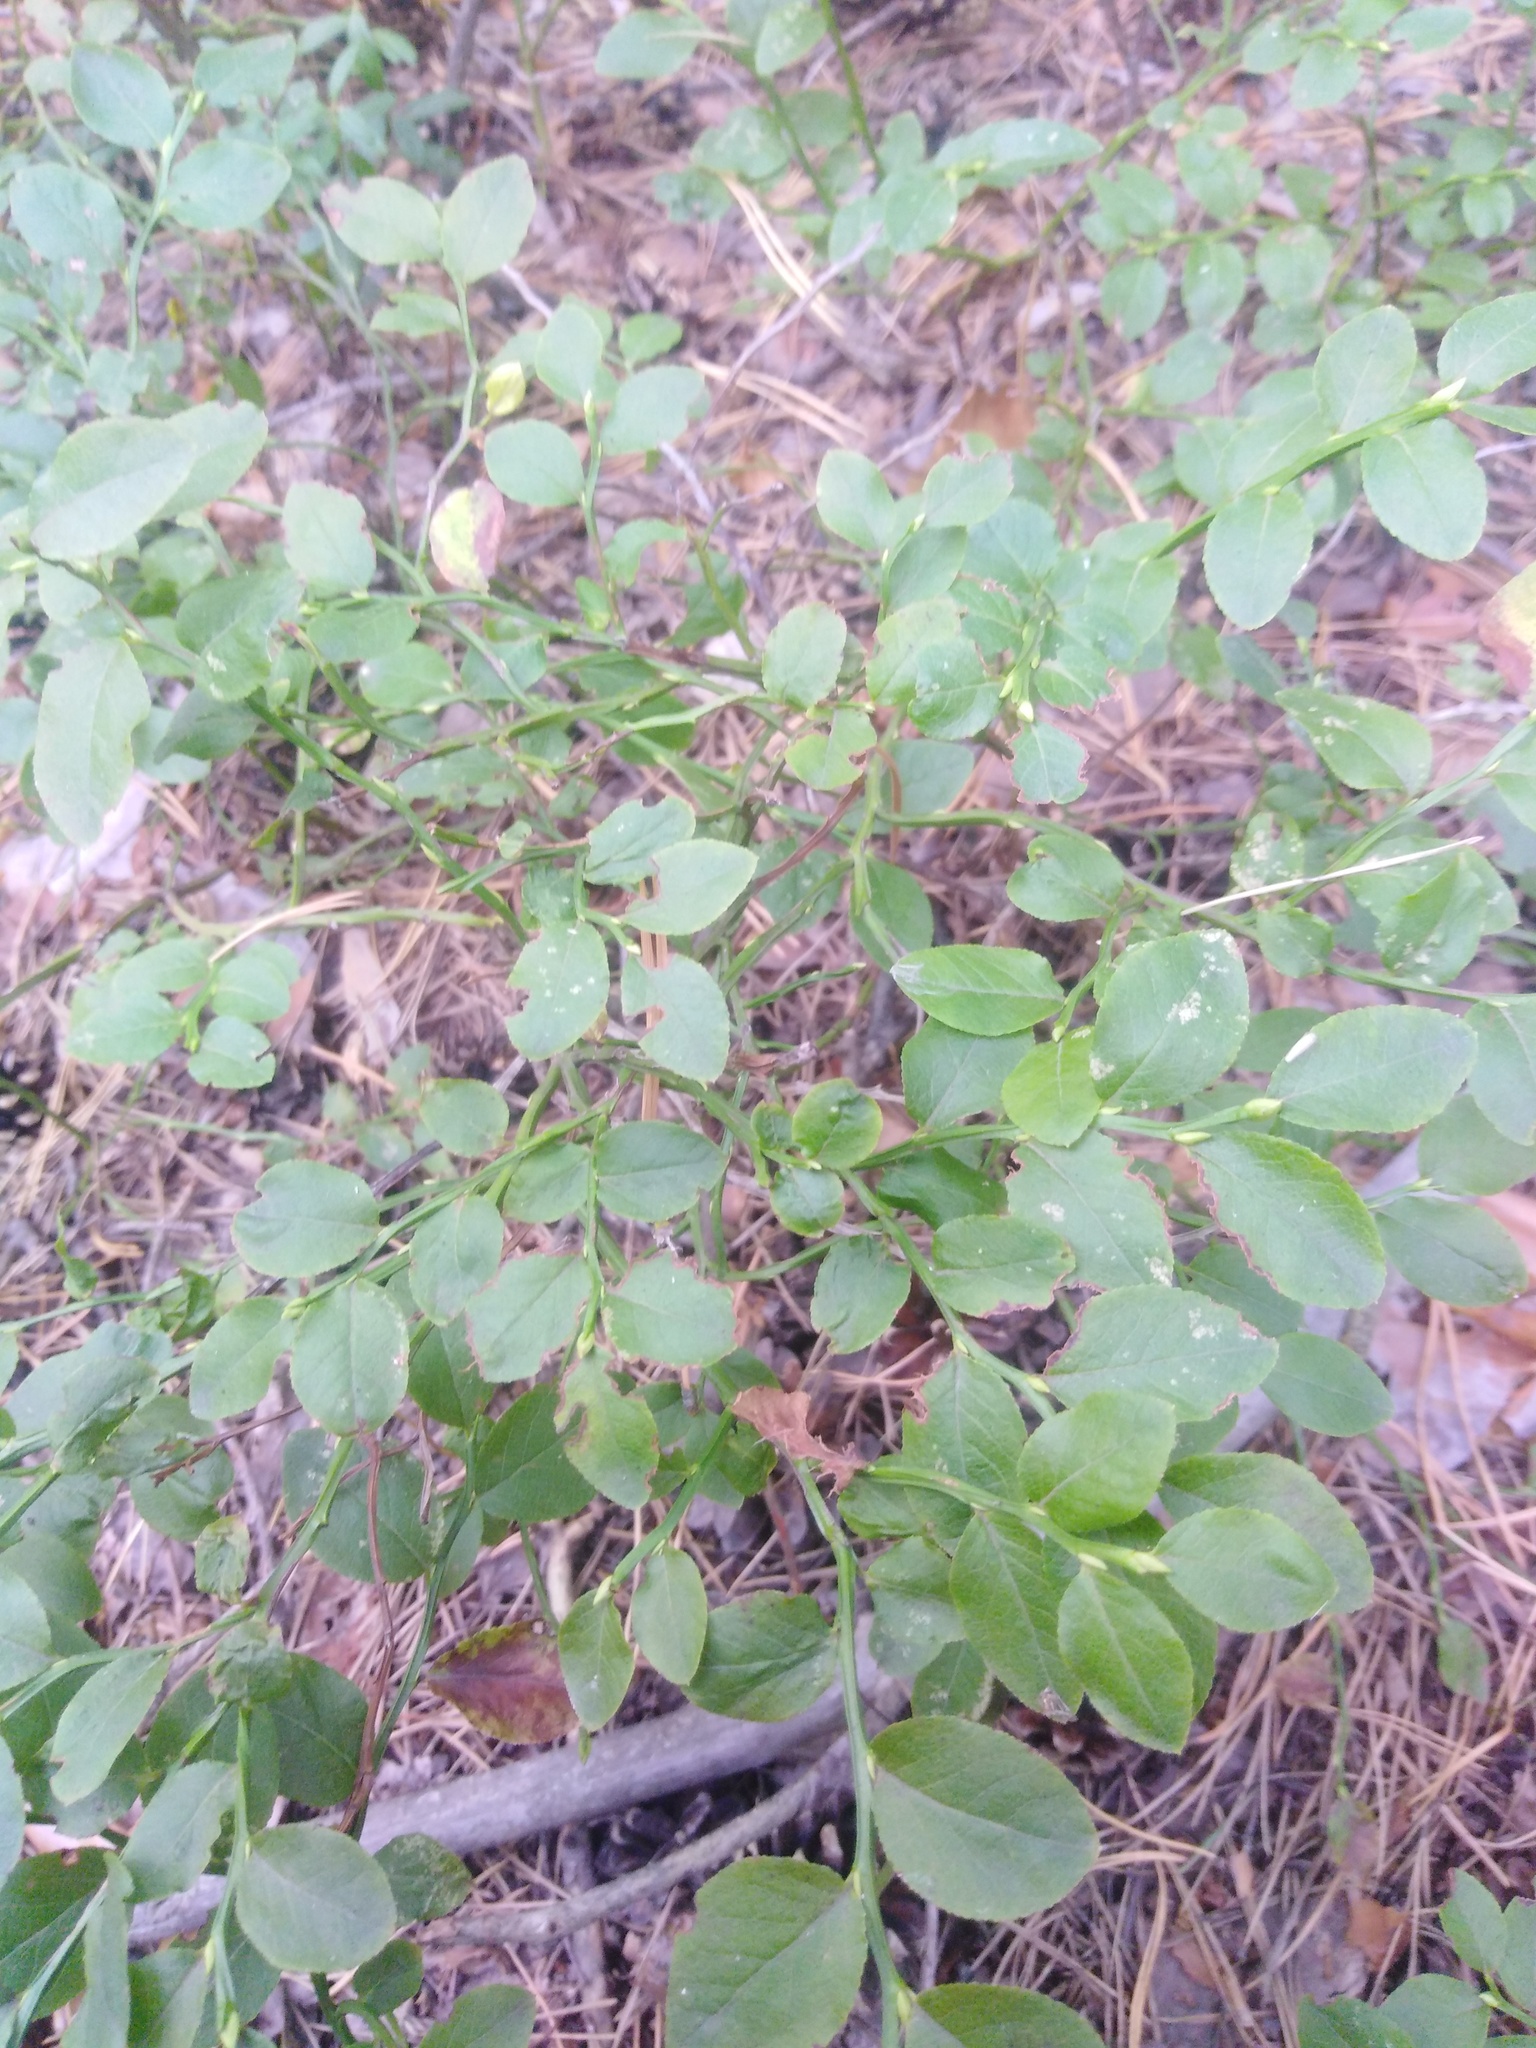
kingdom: Plantae
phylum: Tracheophyta
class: Magnoliopsida
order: Ericales
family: Ericaceae
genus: Vaccinium
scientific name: Vaccinium myrtillus
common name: Bilberry
